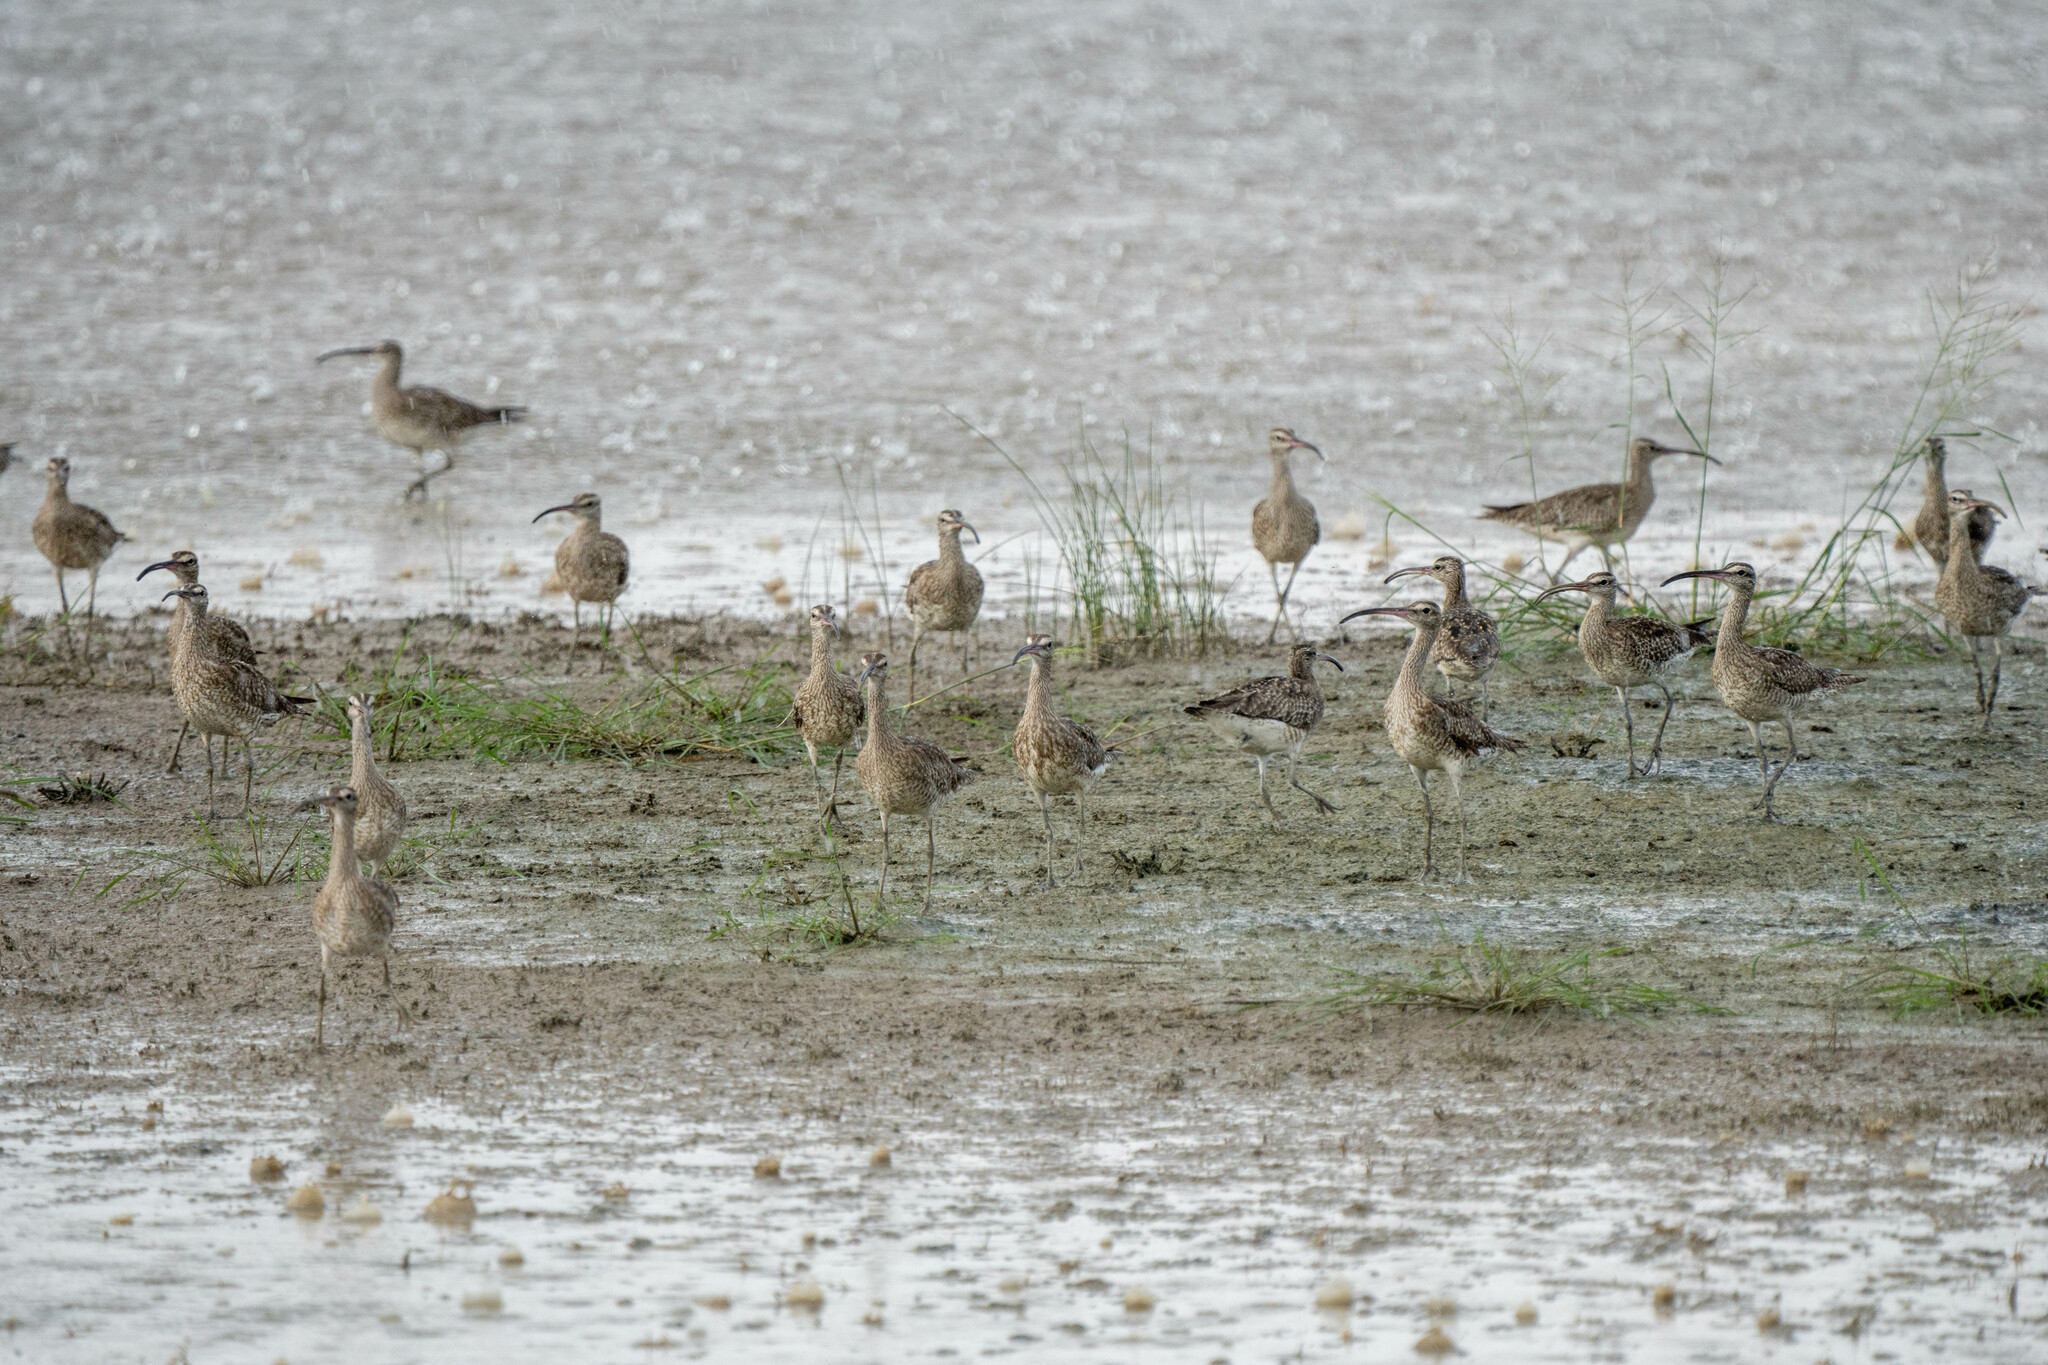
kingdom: Animalia
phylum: Chordata
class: Aves
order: Charadriiformes
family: Scolopacidae
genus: Numenius
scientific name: Numenius phaeopus
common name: Whimbrel
